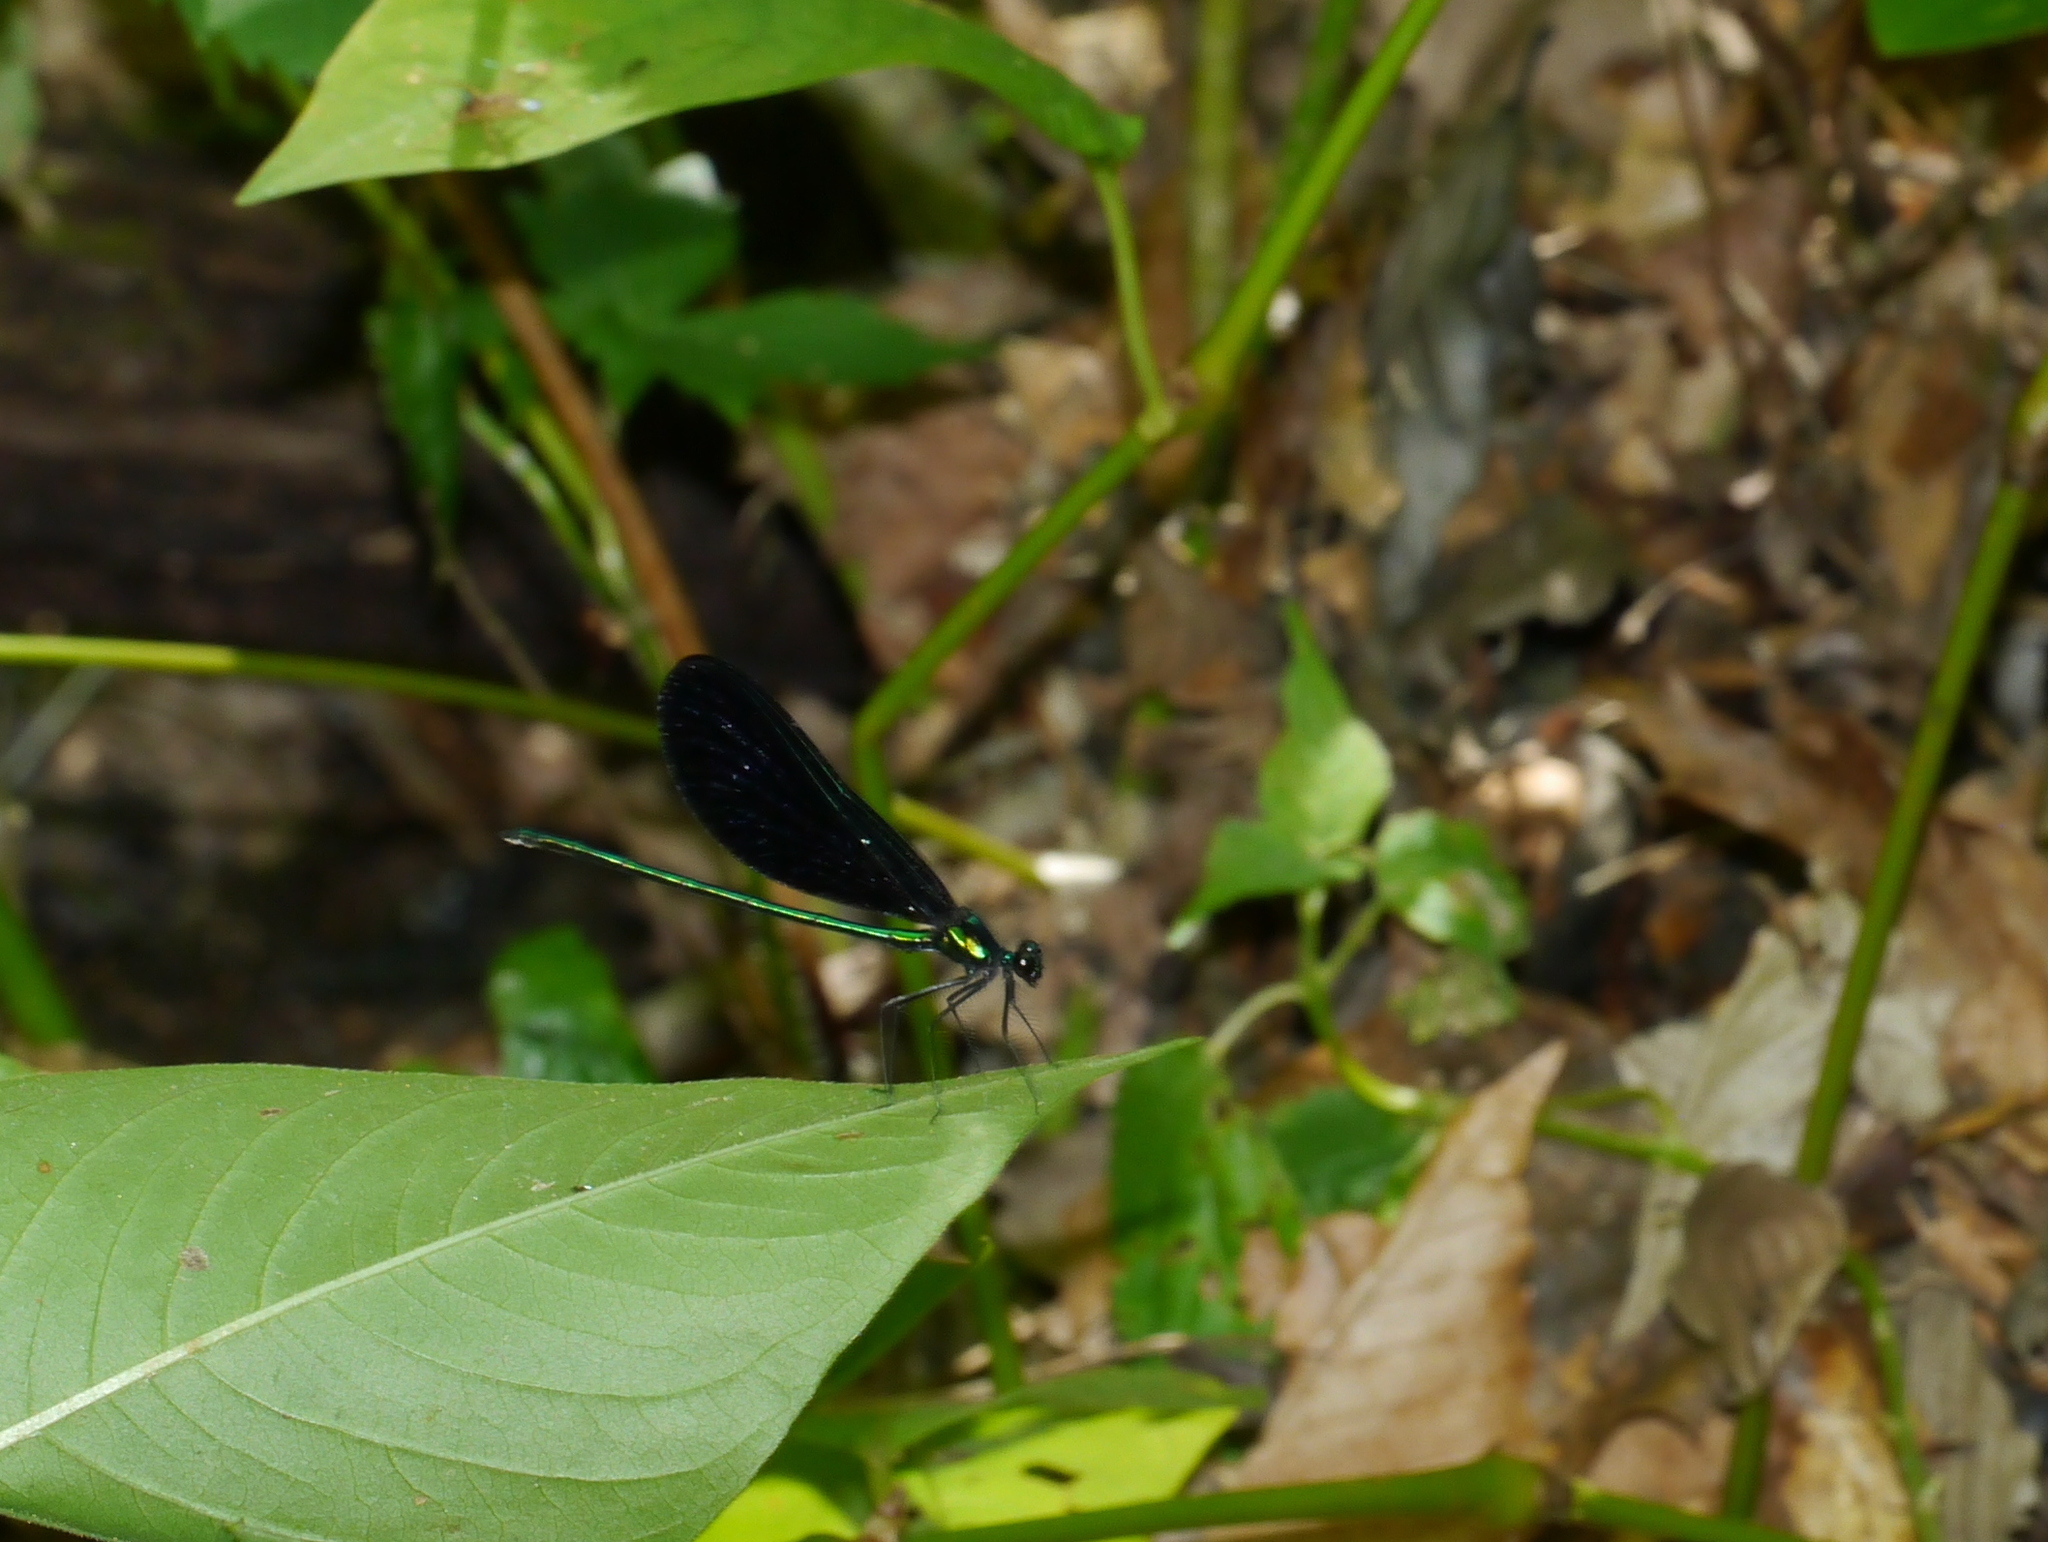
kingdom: Animalia
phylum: Arthropoda
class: Insecta
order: Odonata
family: Calopterygidae
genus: Calopteryx
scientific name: Calopteryx maculata
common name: Ebony jewelwing
